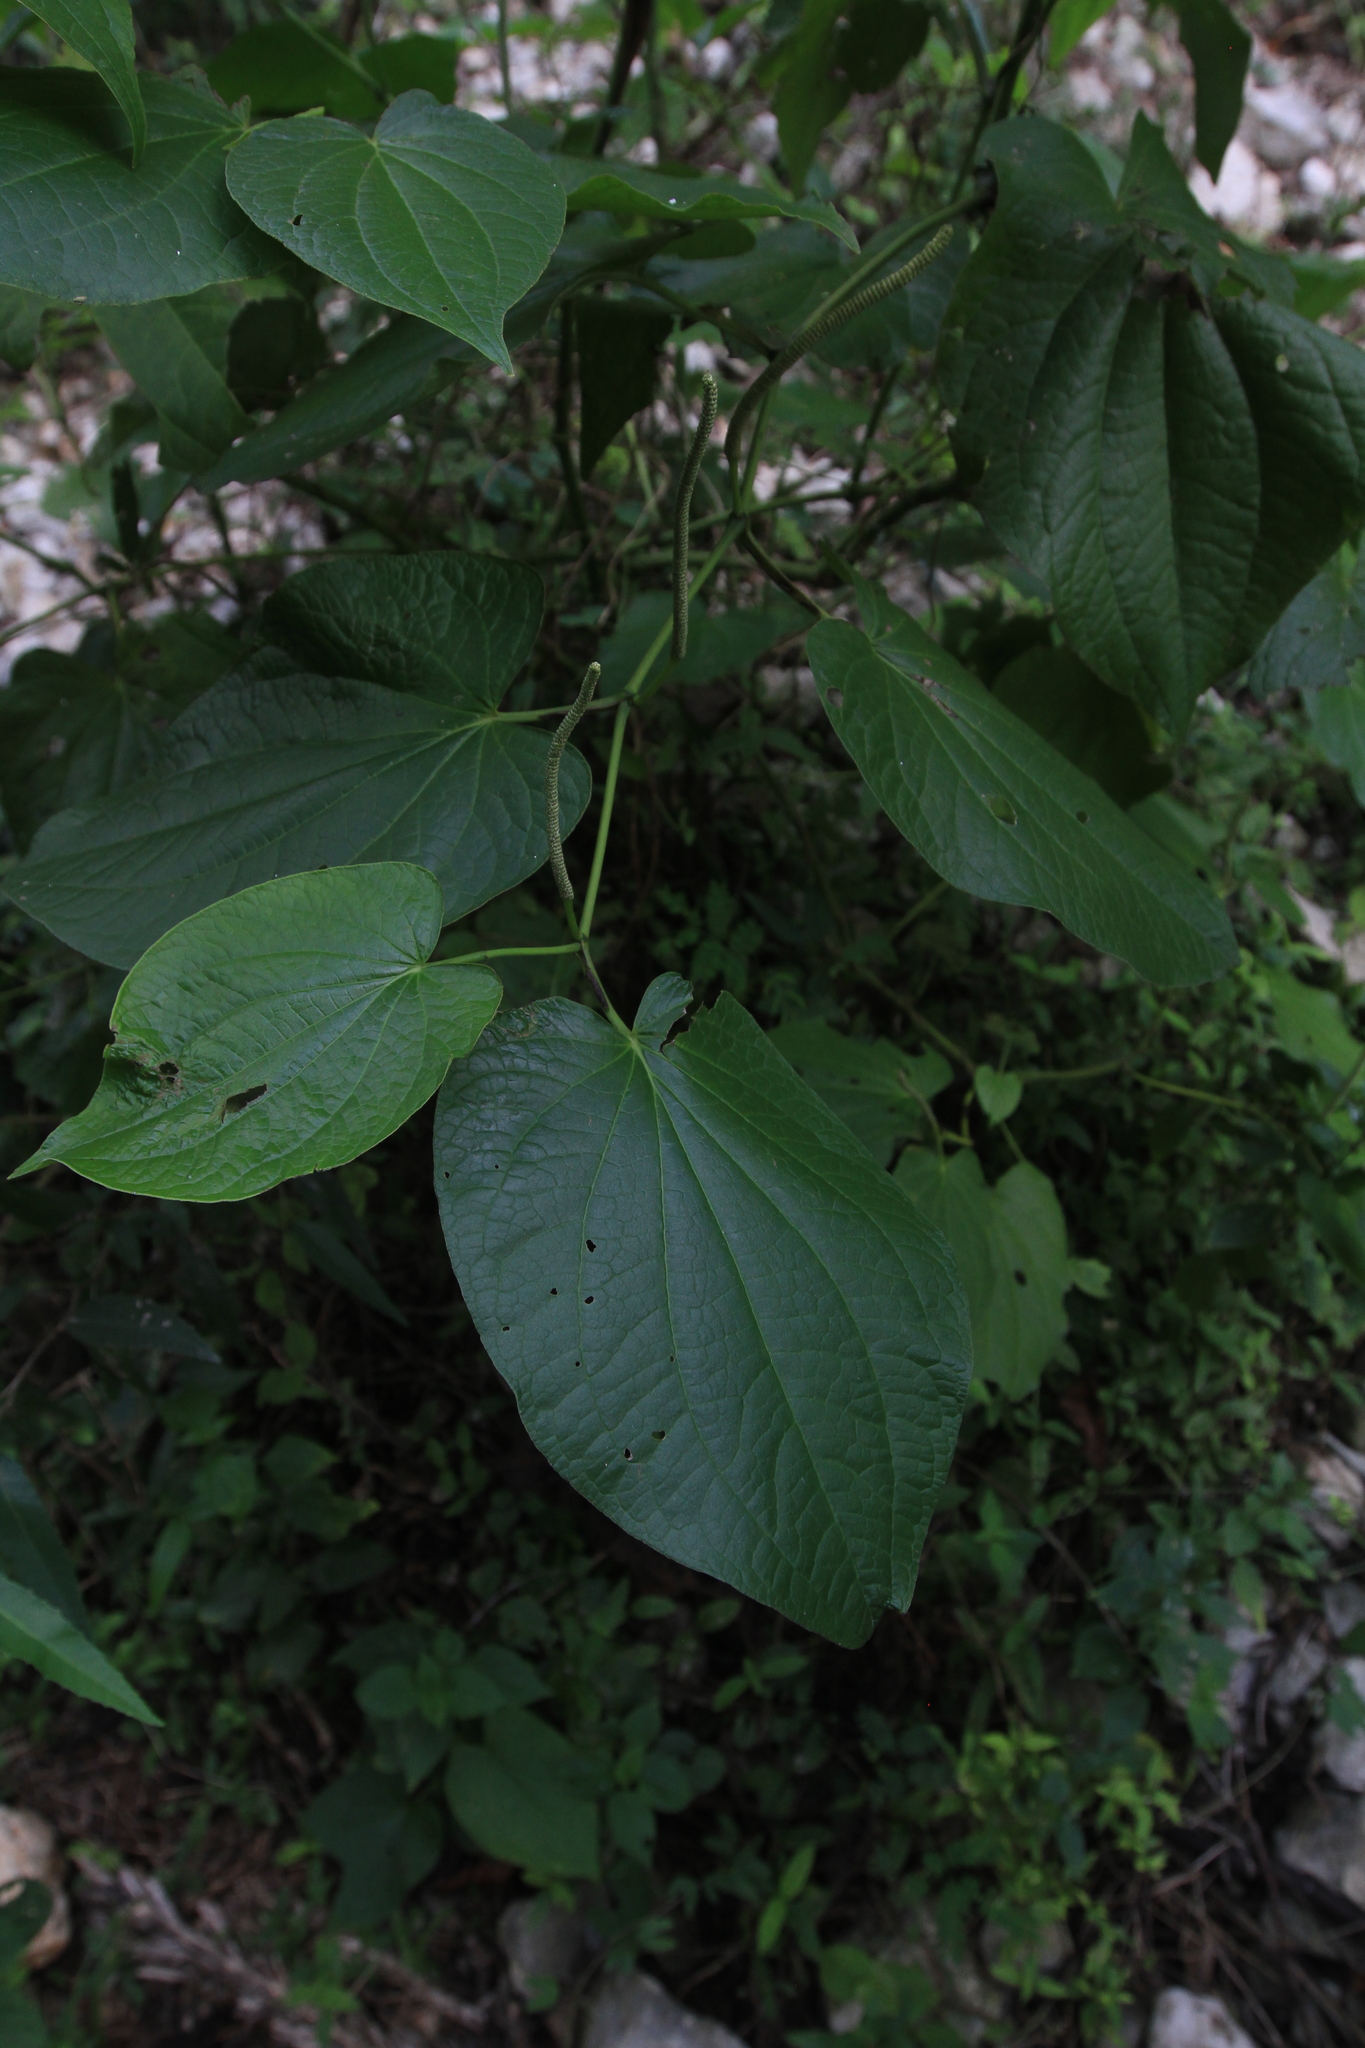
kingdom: Plantae
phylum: Tracheophyta
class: Magnoliopsida
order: Piperales
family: Piperaceae
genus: Piper
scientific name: Piper marginatum
